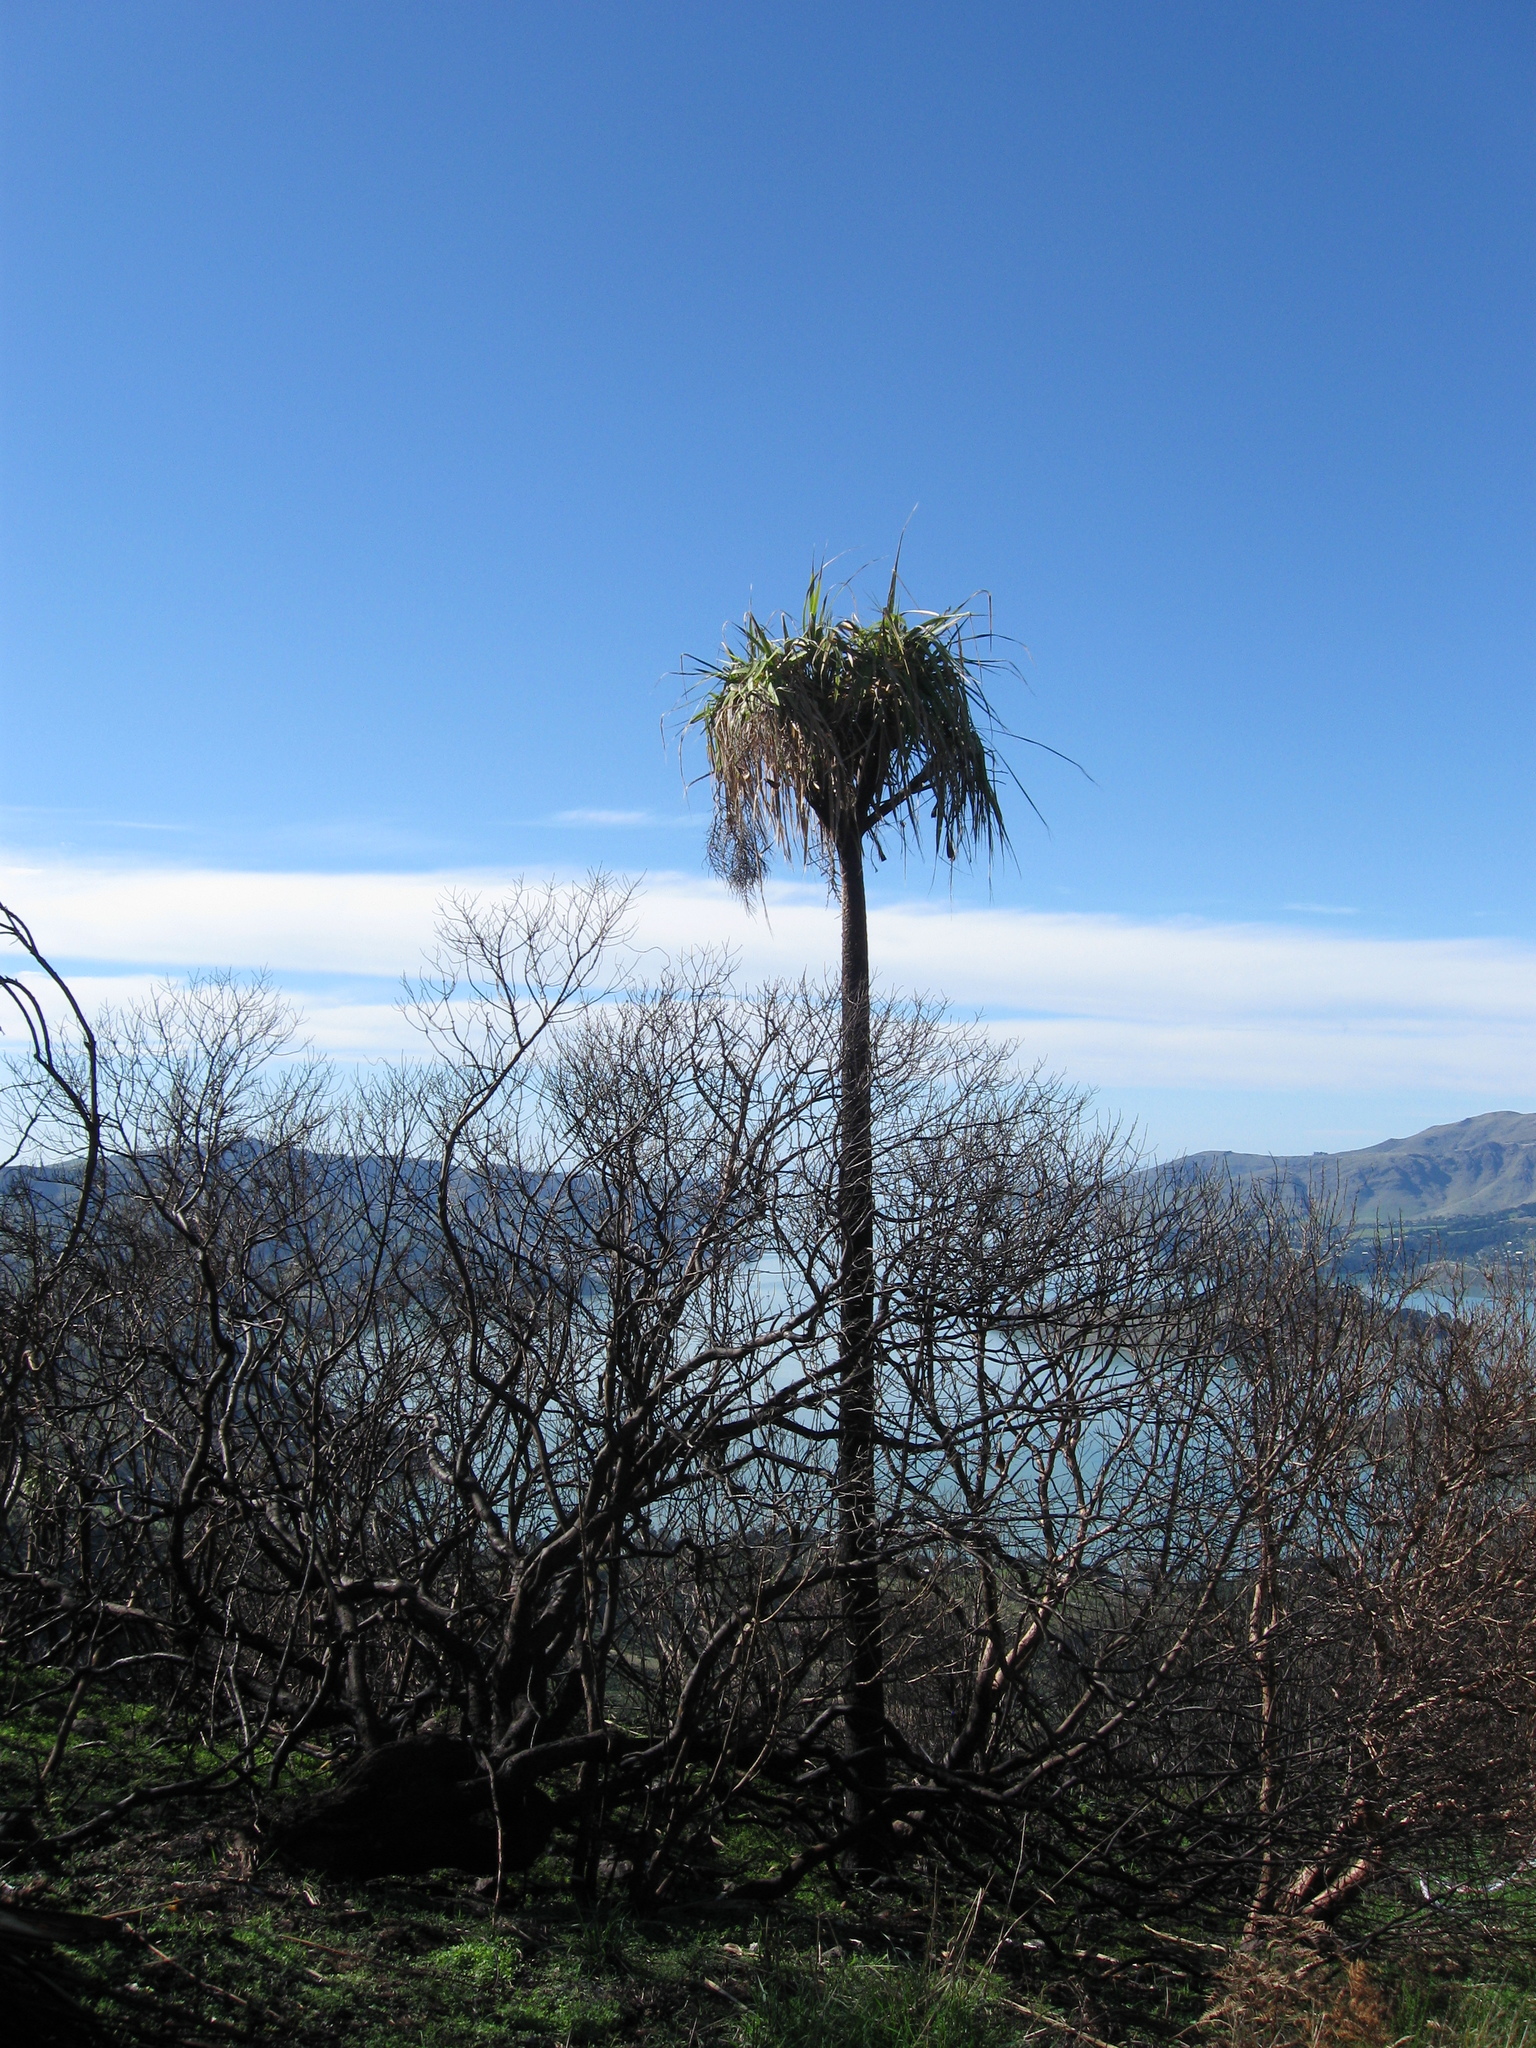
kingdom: Plantae
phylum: Tracheophyta
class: Liliopsida
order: Asparagales
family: Asparagaceae
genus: Cordyline
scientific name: Cordyline australis
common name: Cabbage-palm
